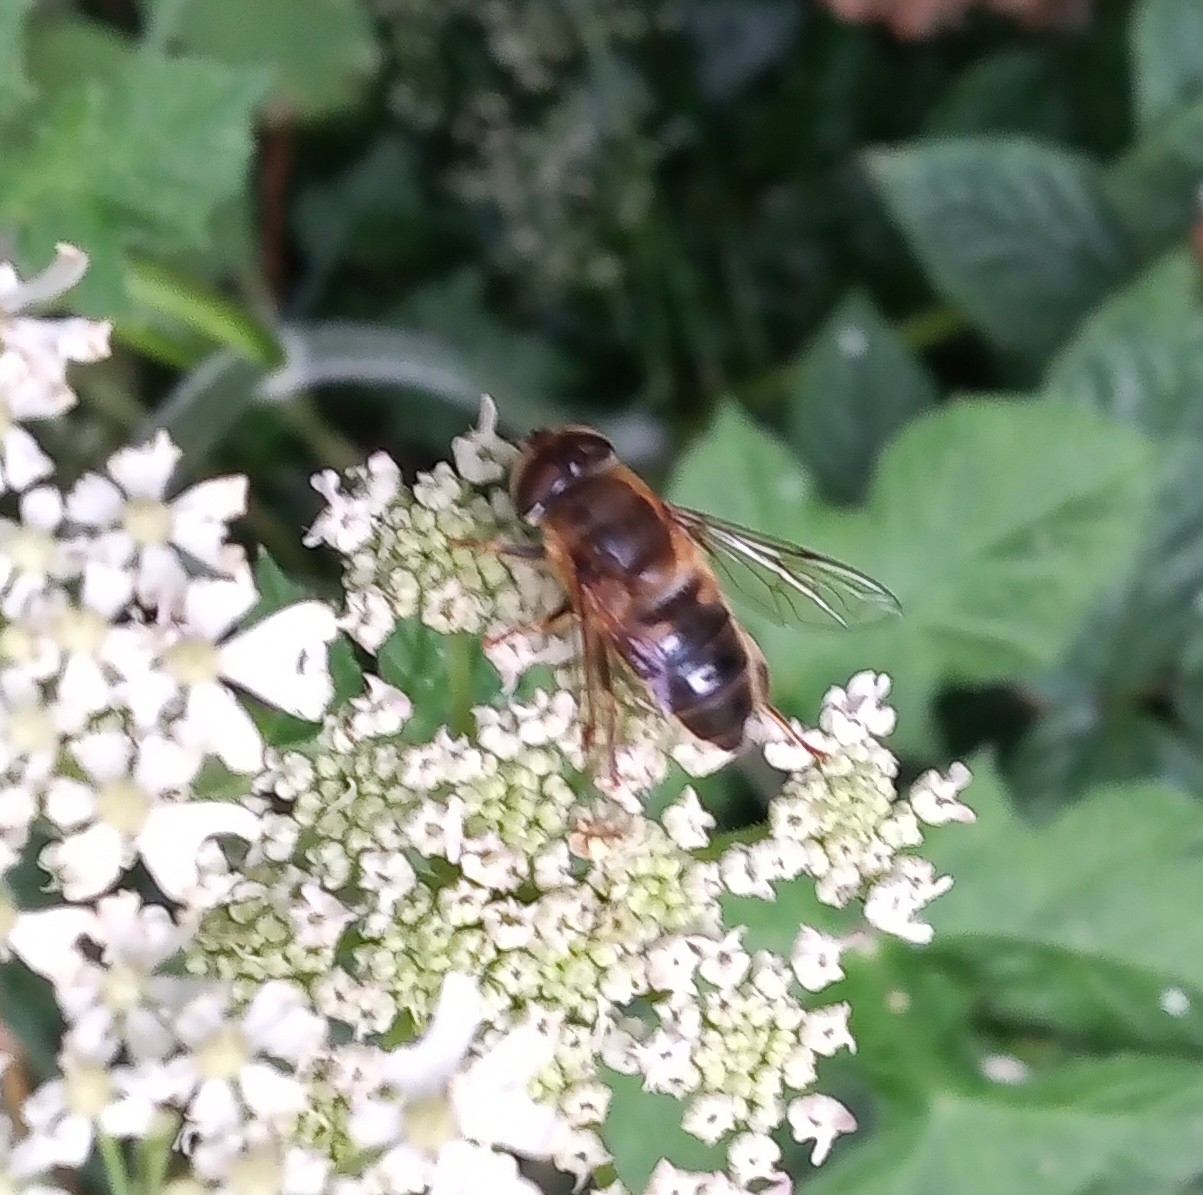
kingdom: Animalia
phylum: Arthropoda
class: Insecta
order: Diptera
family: Syrphidae
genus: Eristalis
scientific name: Eristalis pertinax
